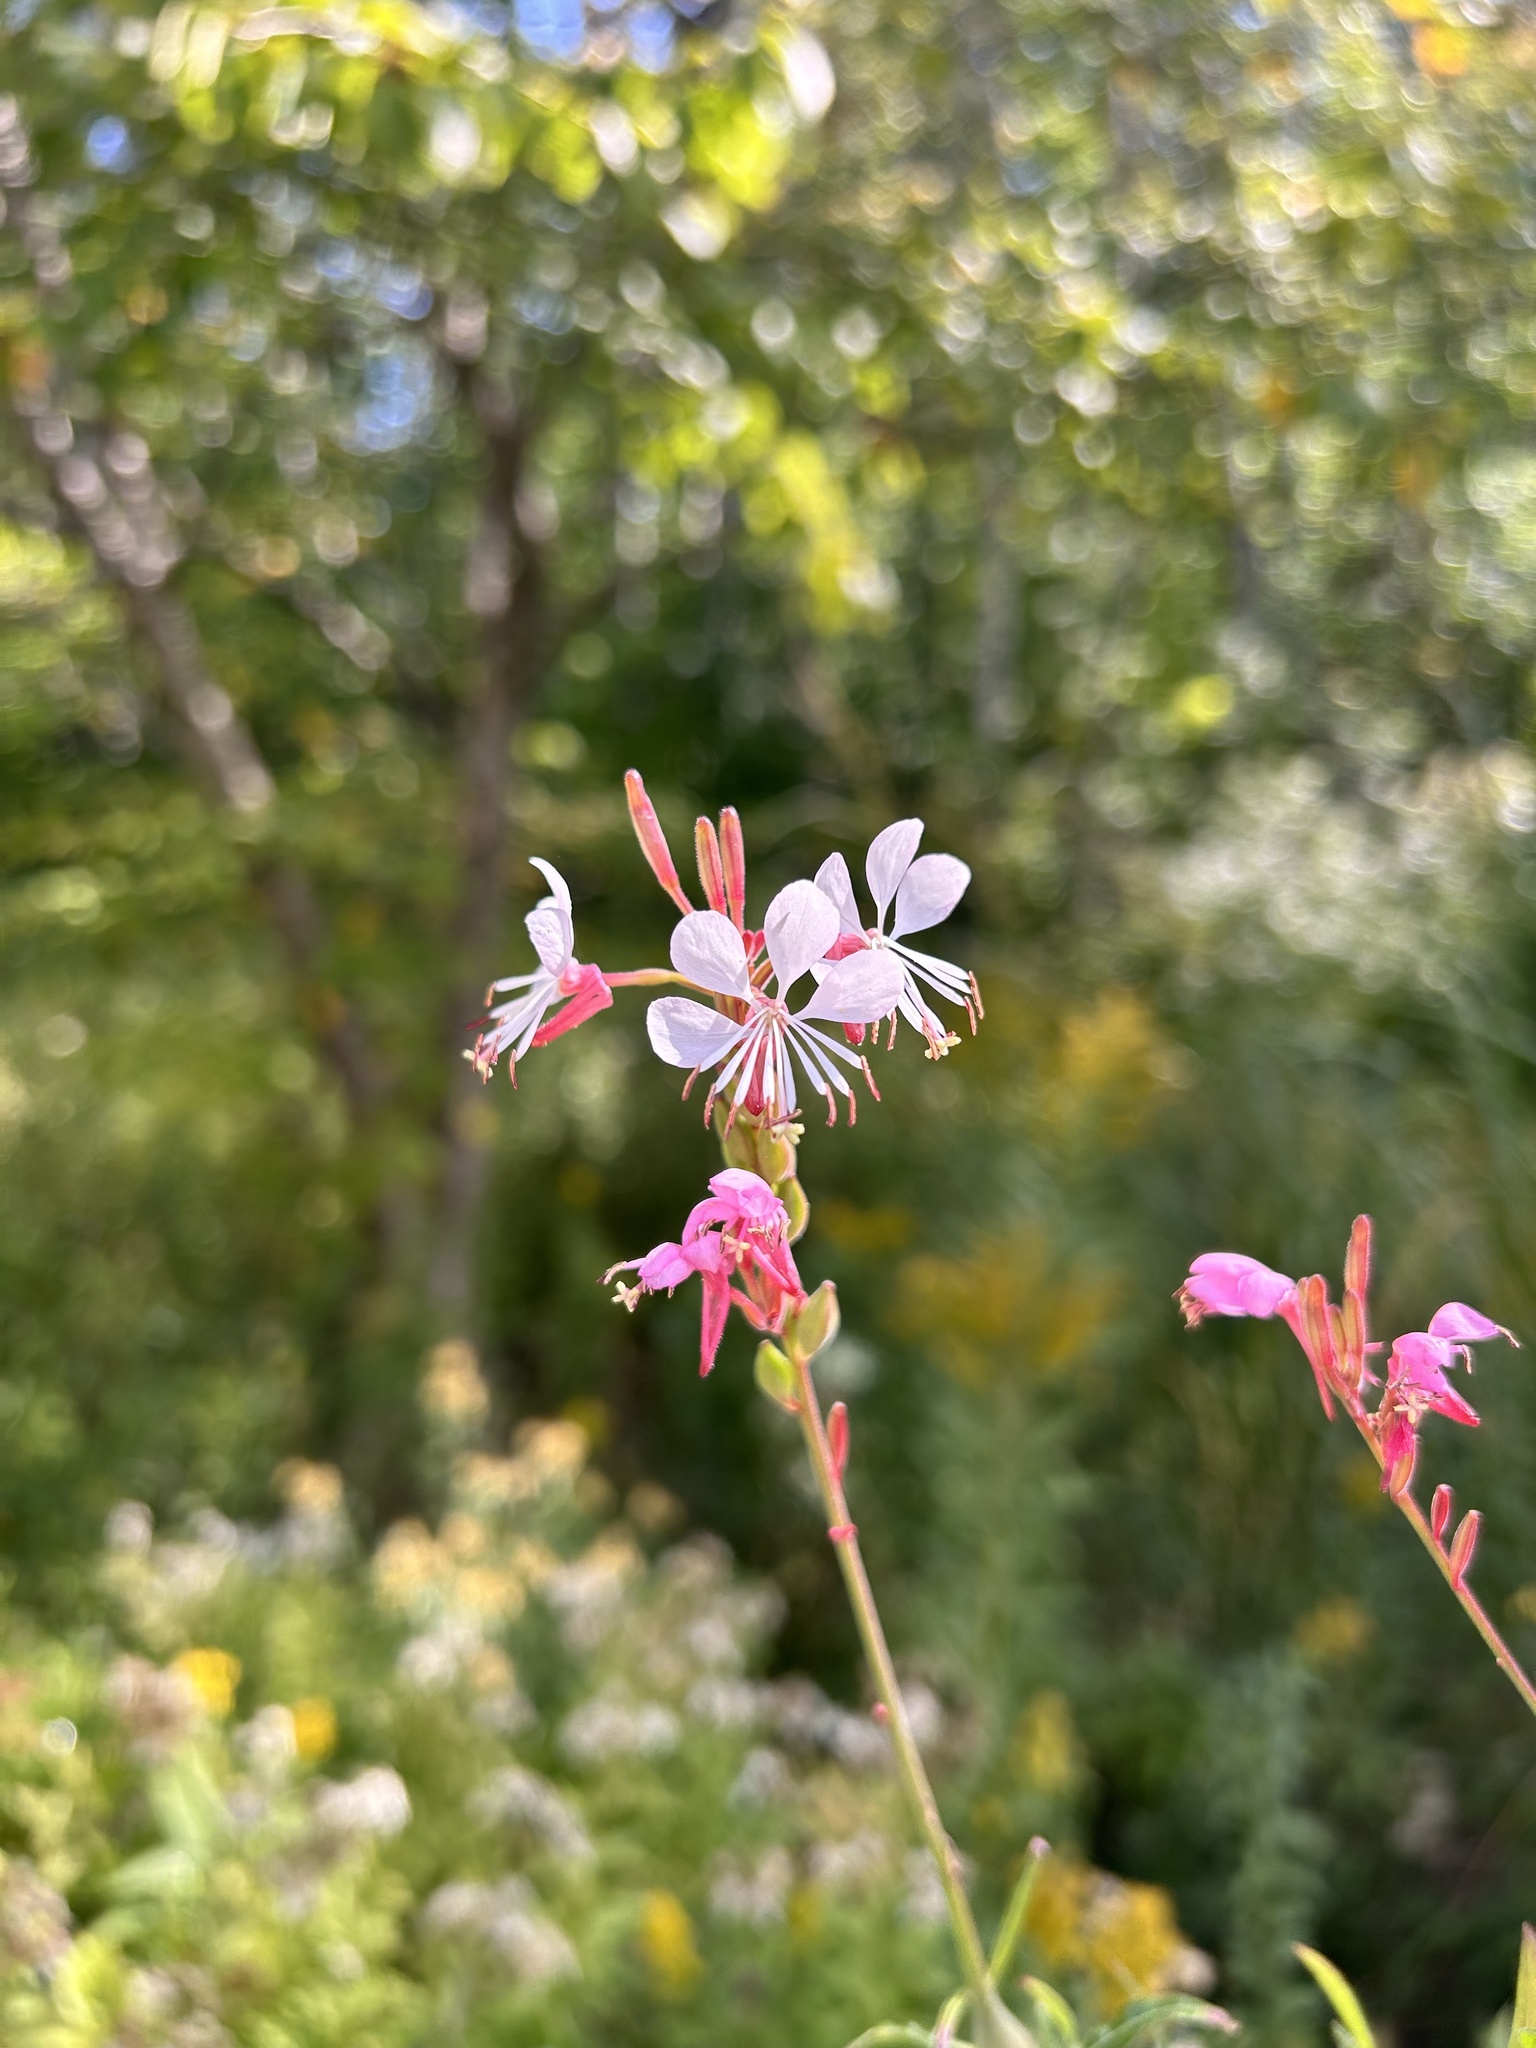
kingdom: Plantae
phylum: Tracheophyta
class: Magnoliopsida
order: Myrtales
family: Onagraceae
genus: Oenothera
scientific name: Oenothera gaura
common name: Biennial beeblossom
